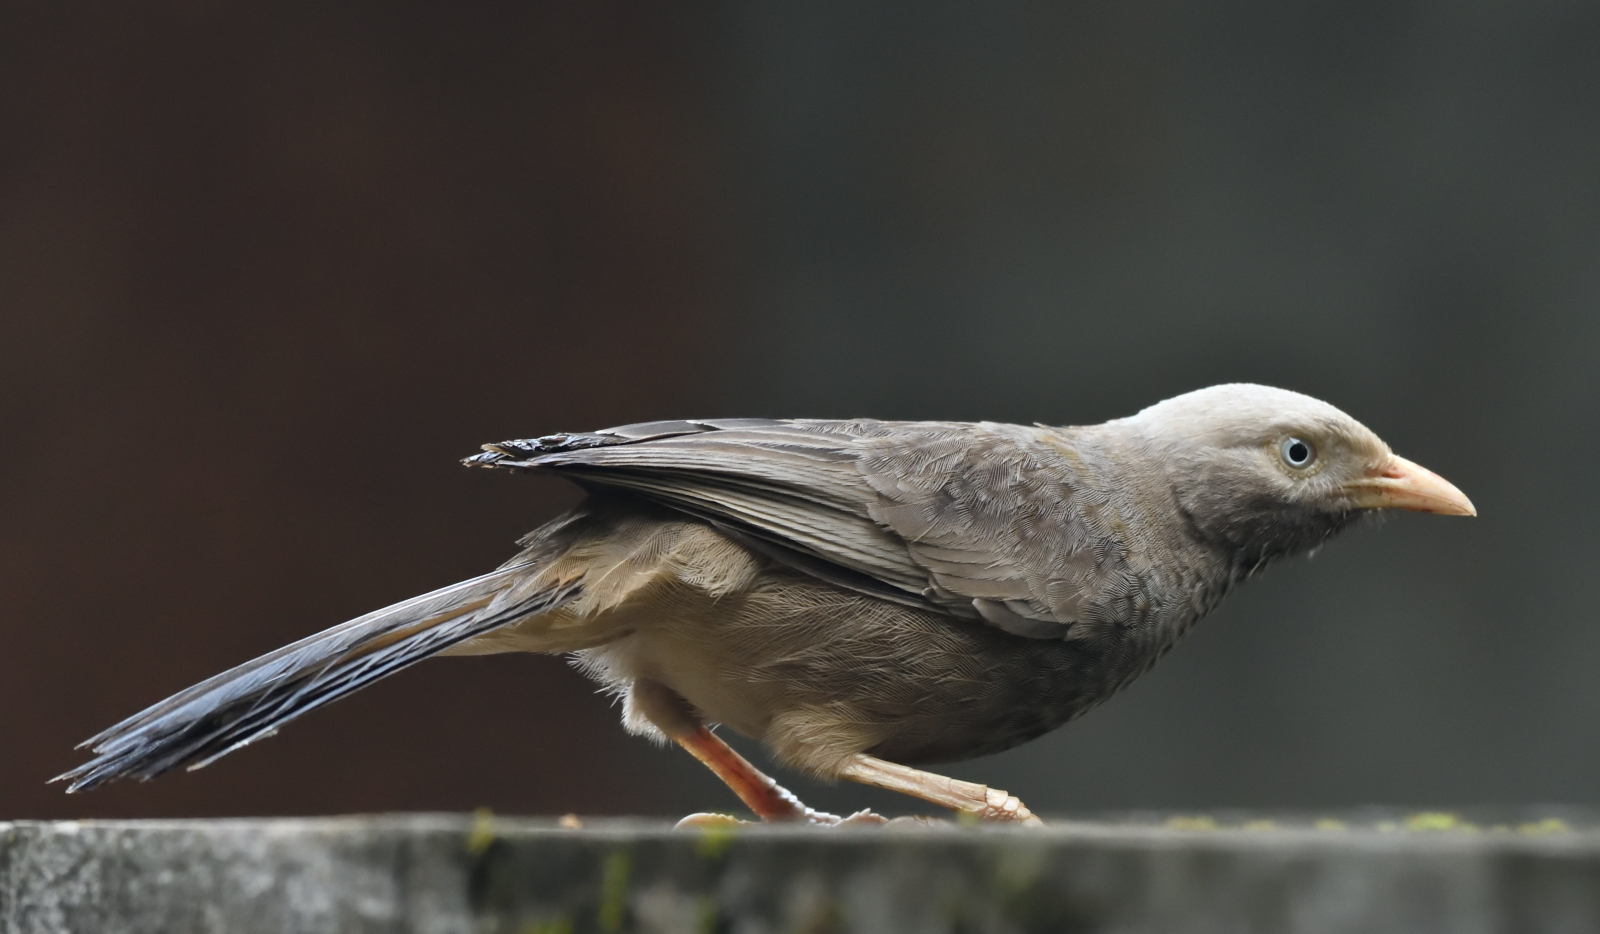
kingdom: Animalia
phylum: Chordata
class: Aves
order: Passeriformes
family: Leiothrichidae
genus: Turdoides
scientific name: Turdoides affinis
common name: Yellow-billed babbler
